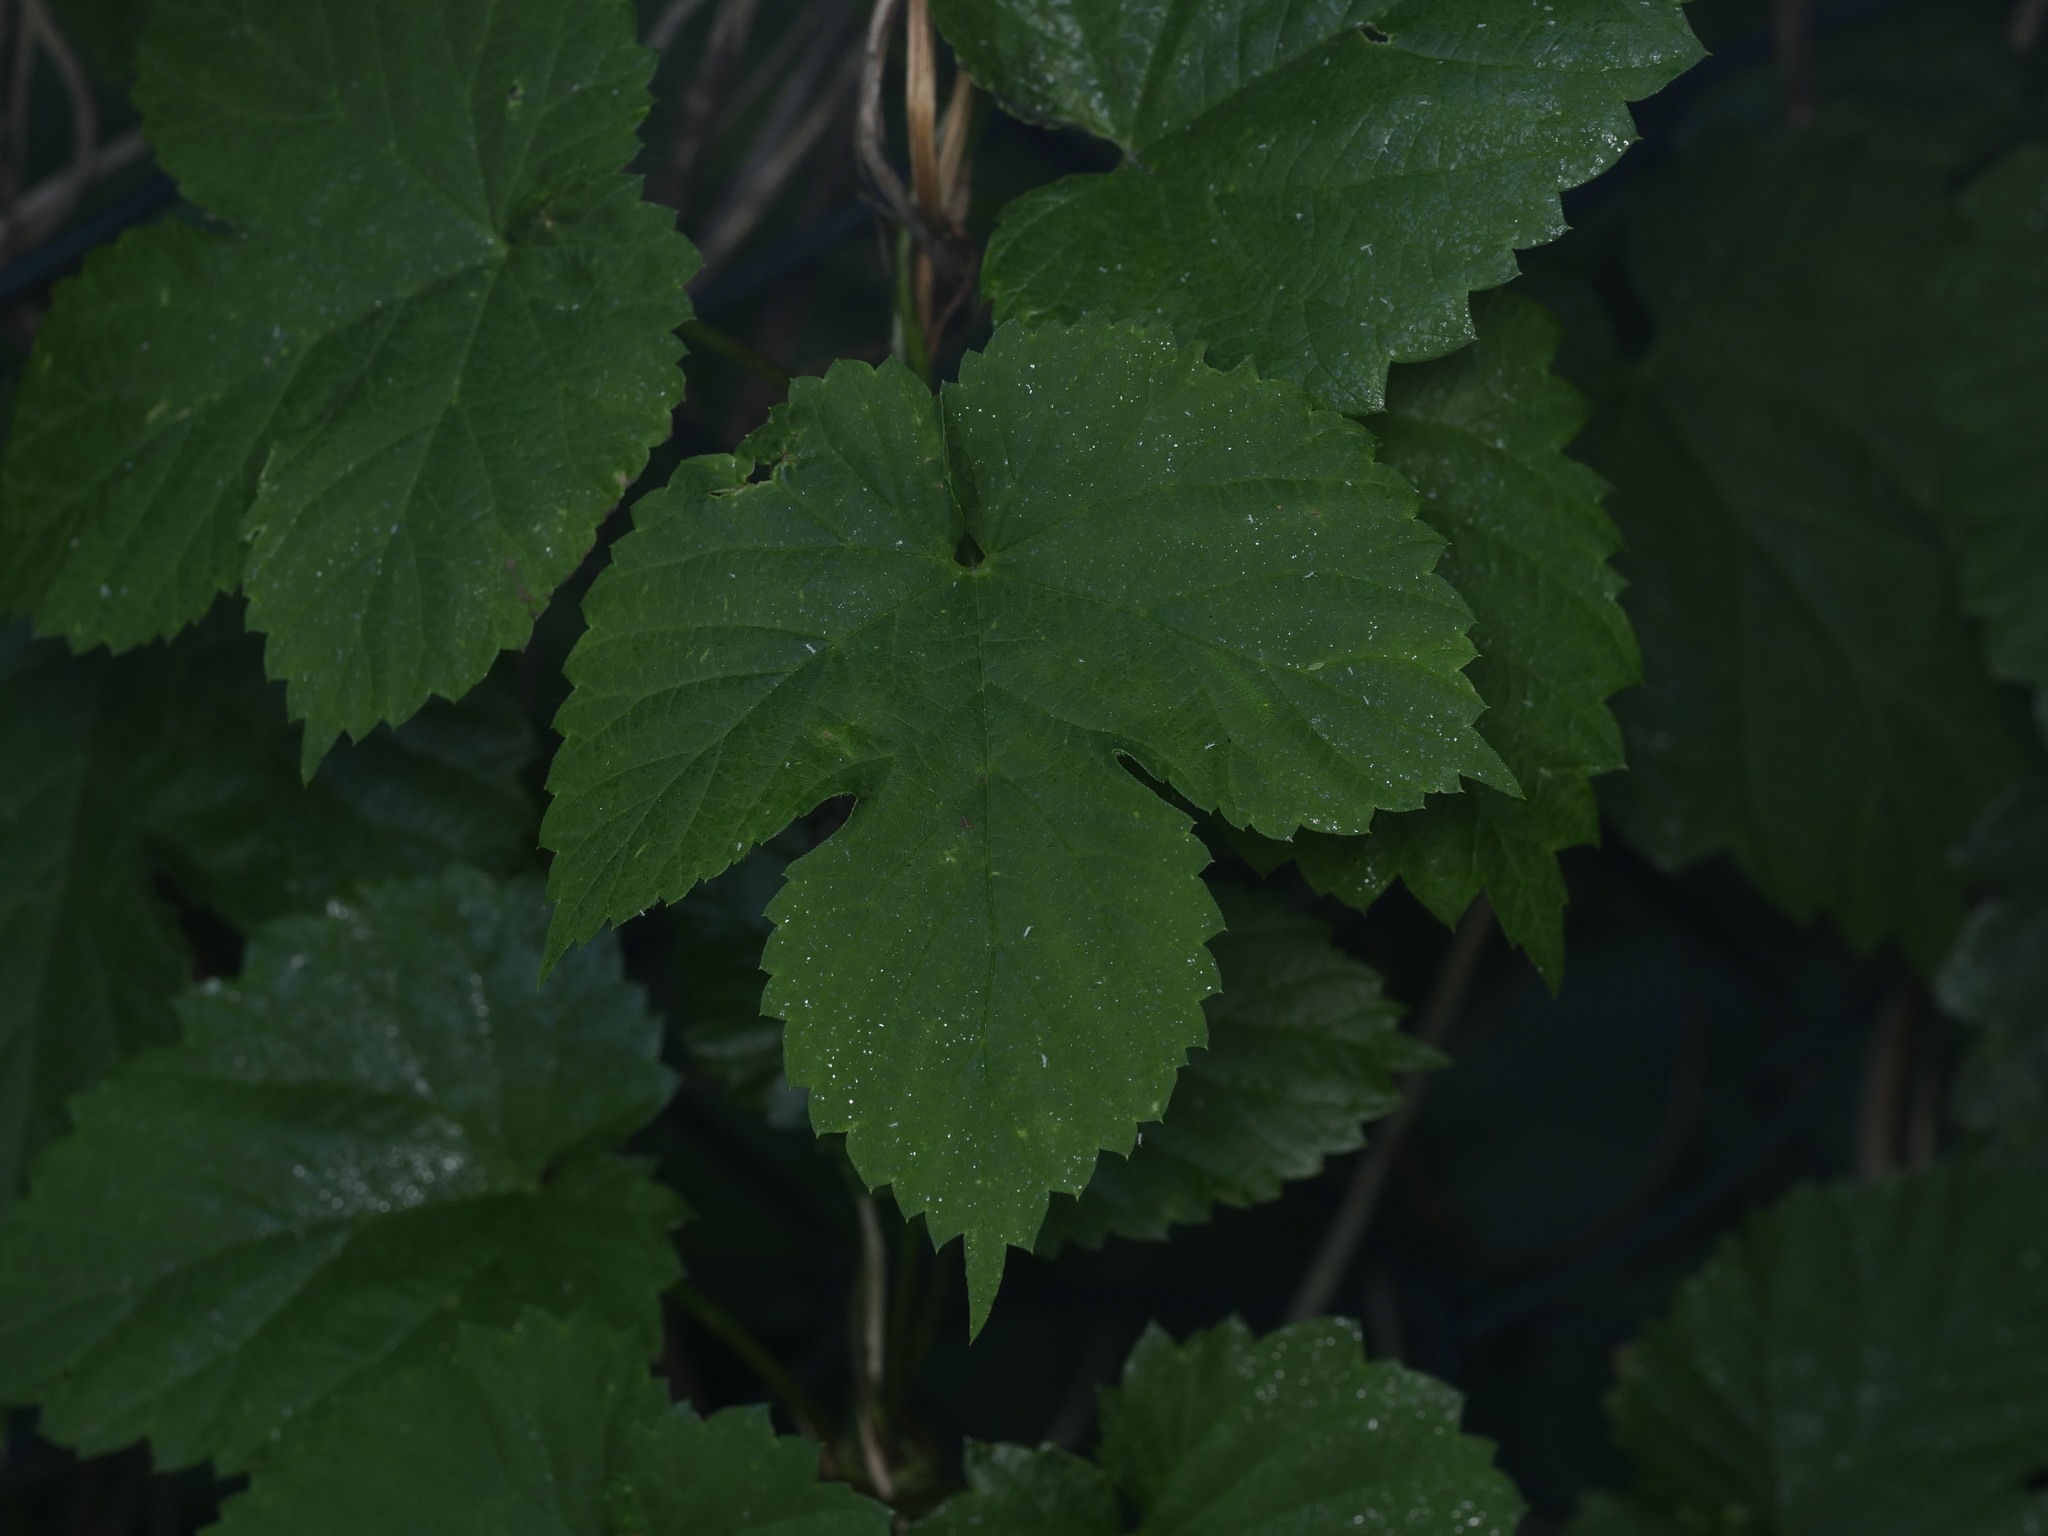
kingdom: Plantae
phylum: Tracheophyta
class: Magnoliopsida
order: Rosales
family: Cannabaceae
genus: Humulus
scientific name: Humulus lupulus
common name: Hop
